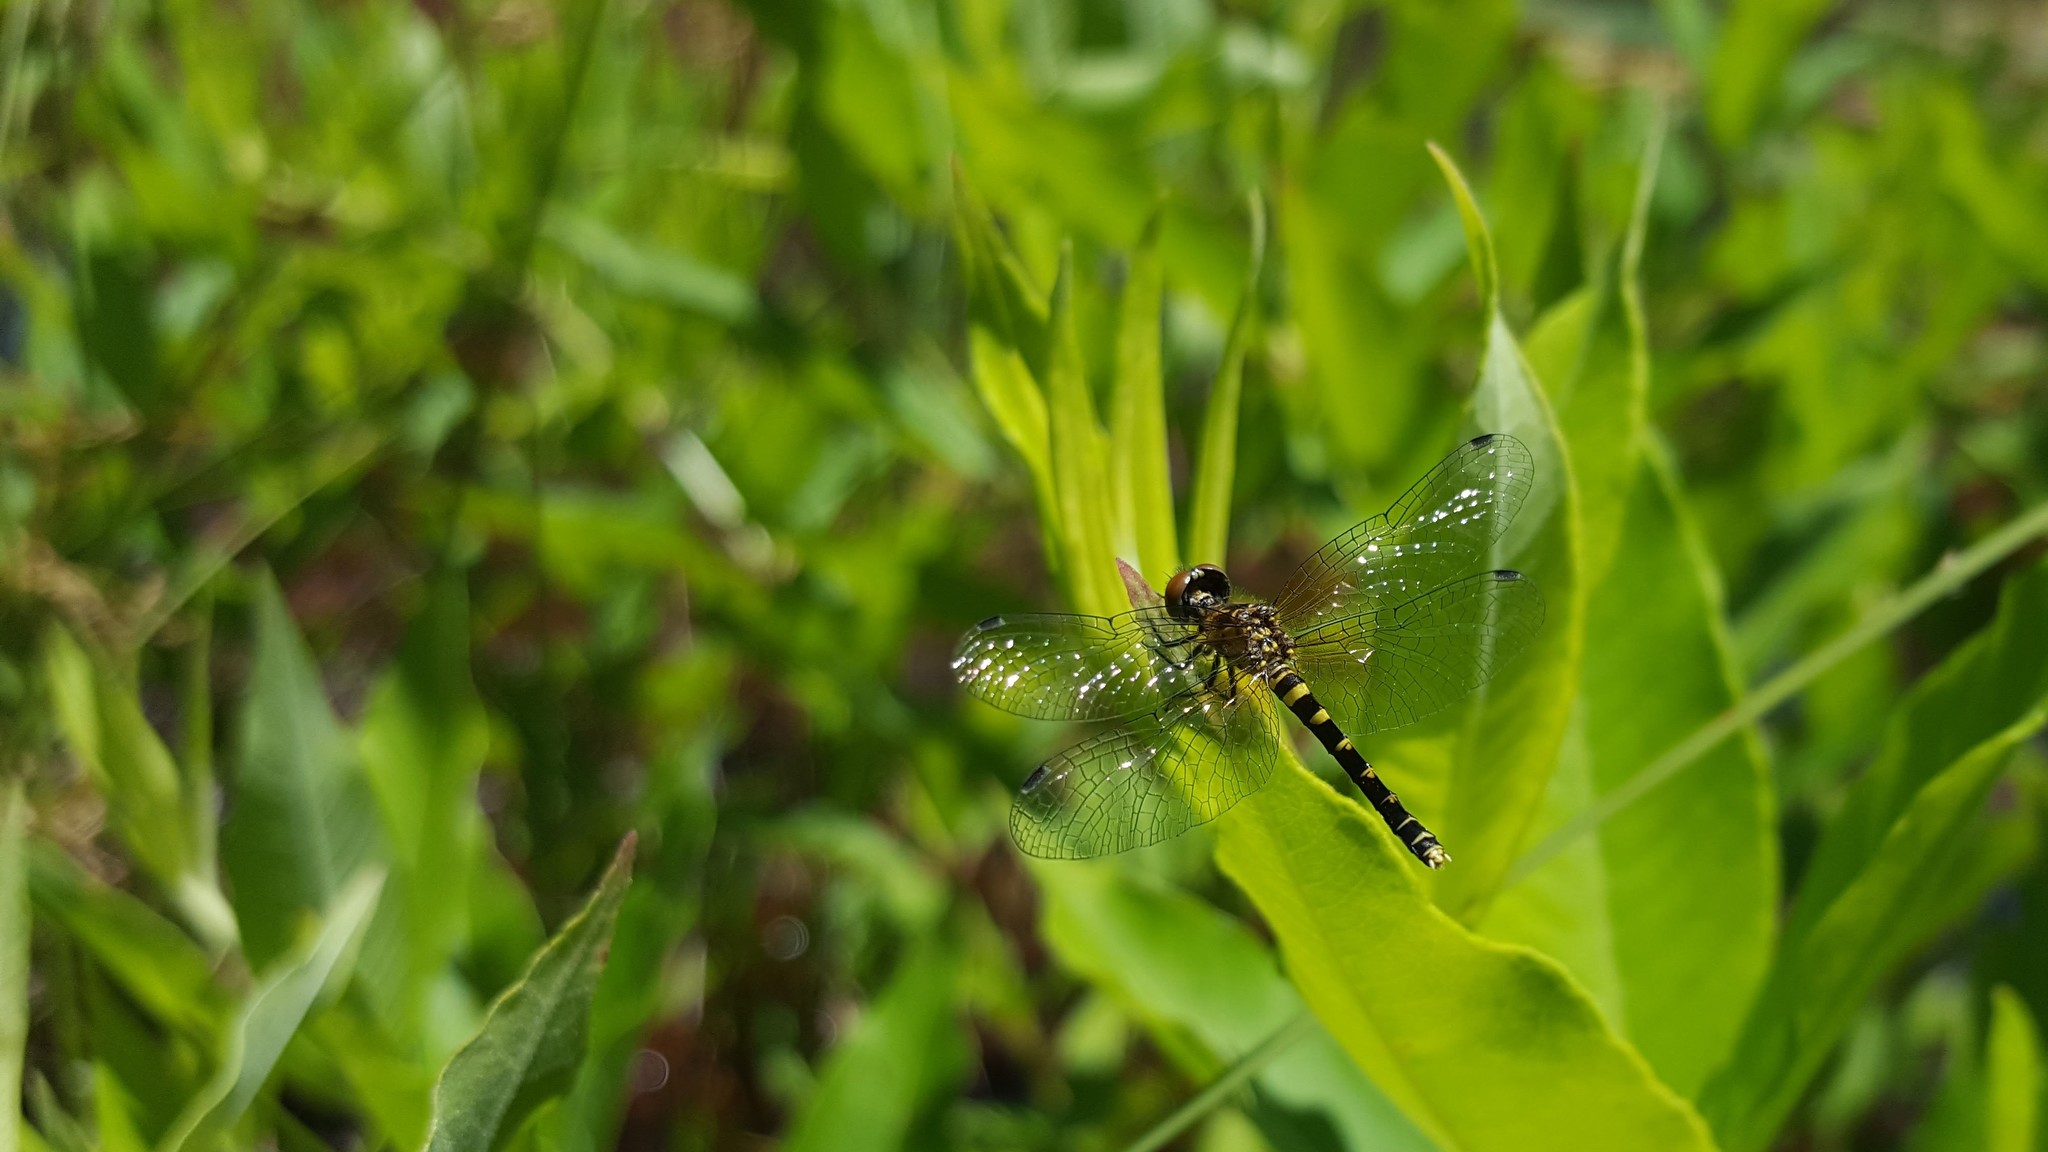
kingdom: Animalia
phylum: Arthropoda
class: Insecta
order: Odonata
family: Libellulidae
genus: Nannothemis
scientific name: Nannothemis bella
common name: Elfin skimmer
